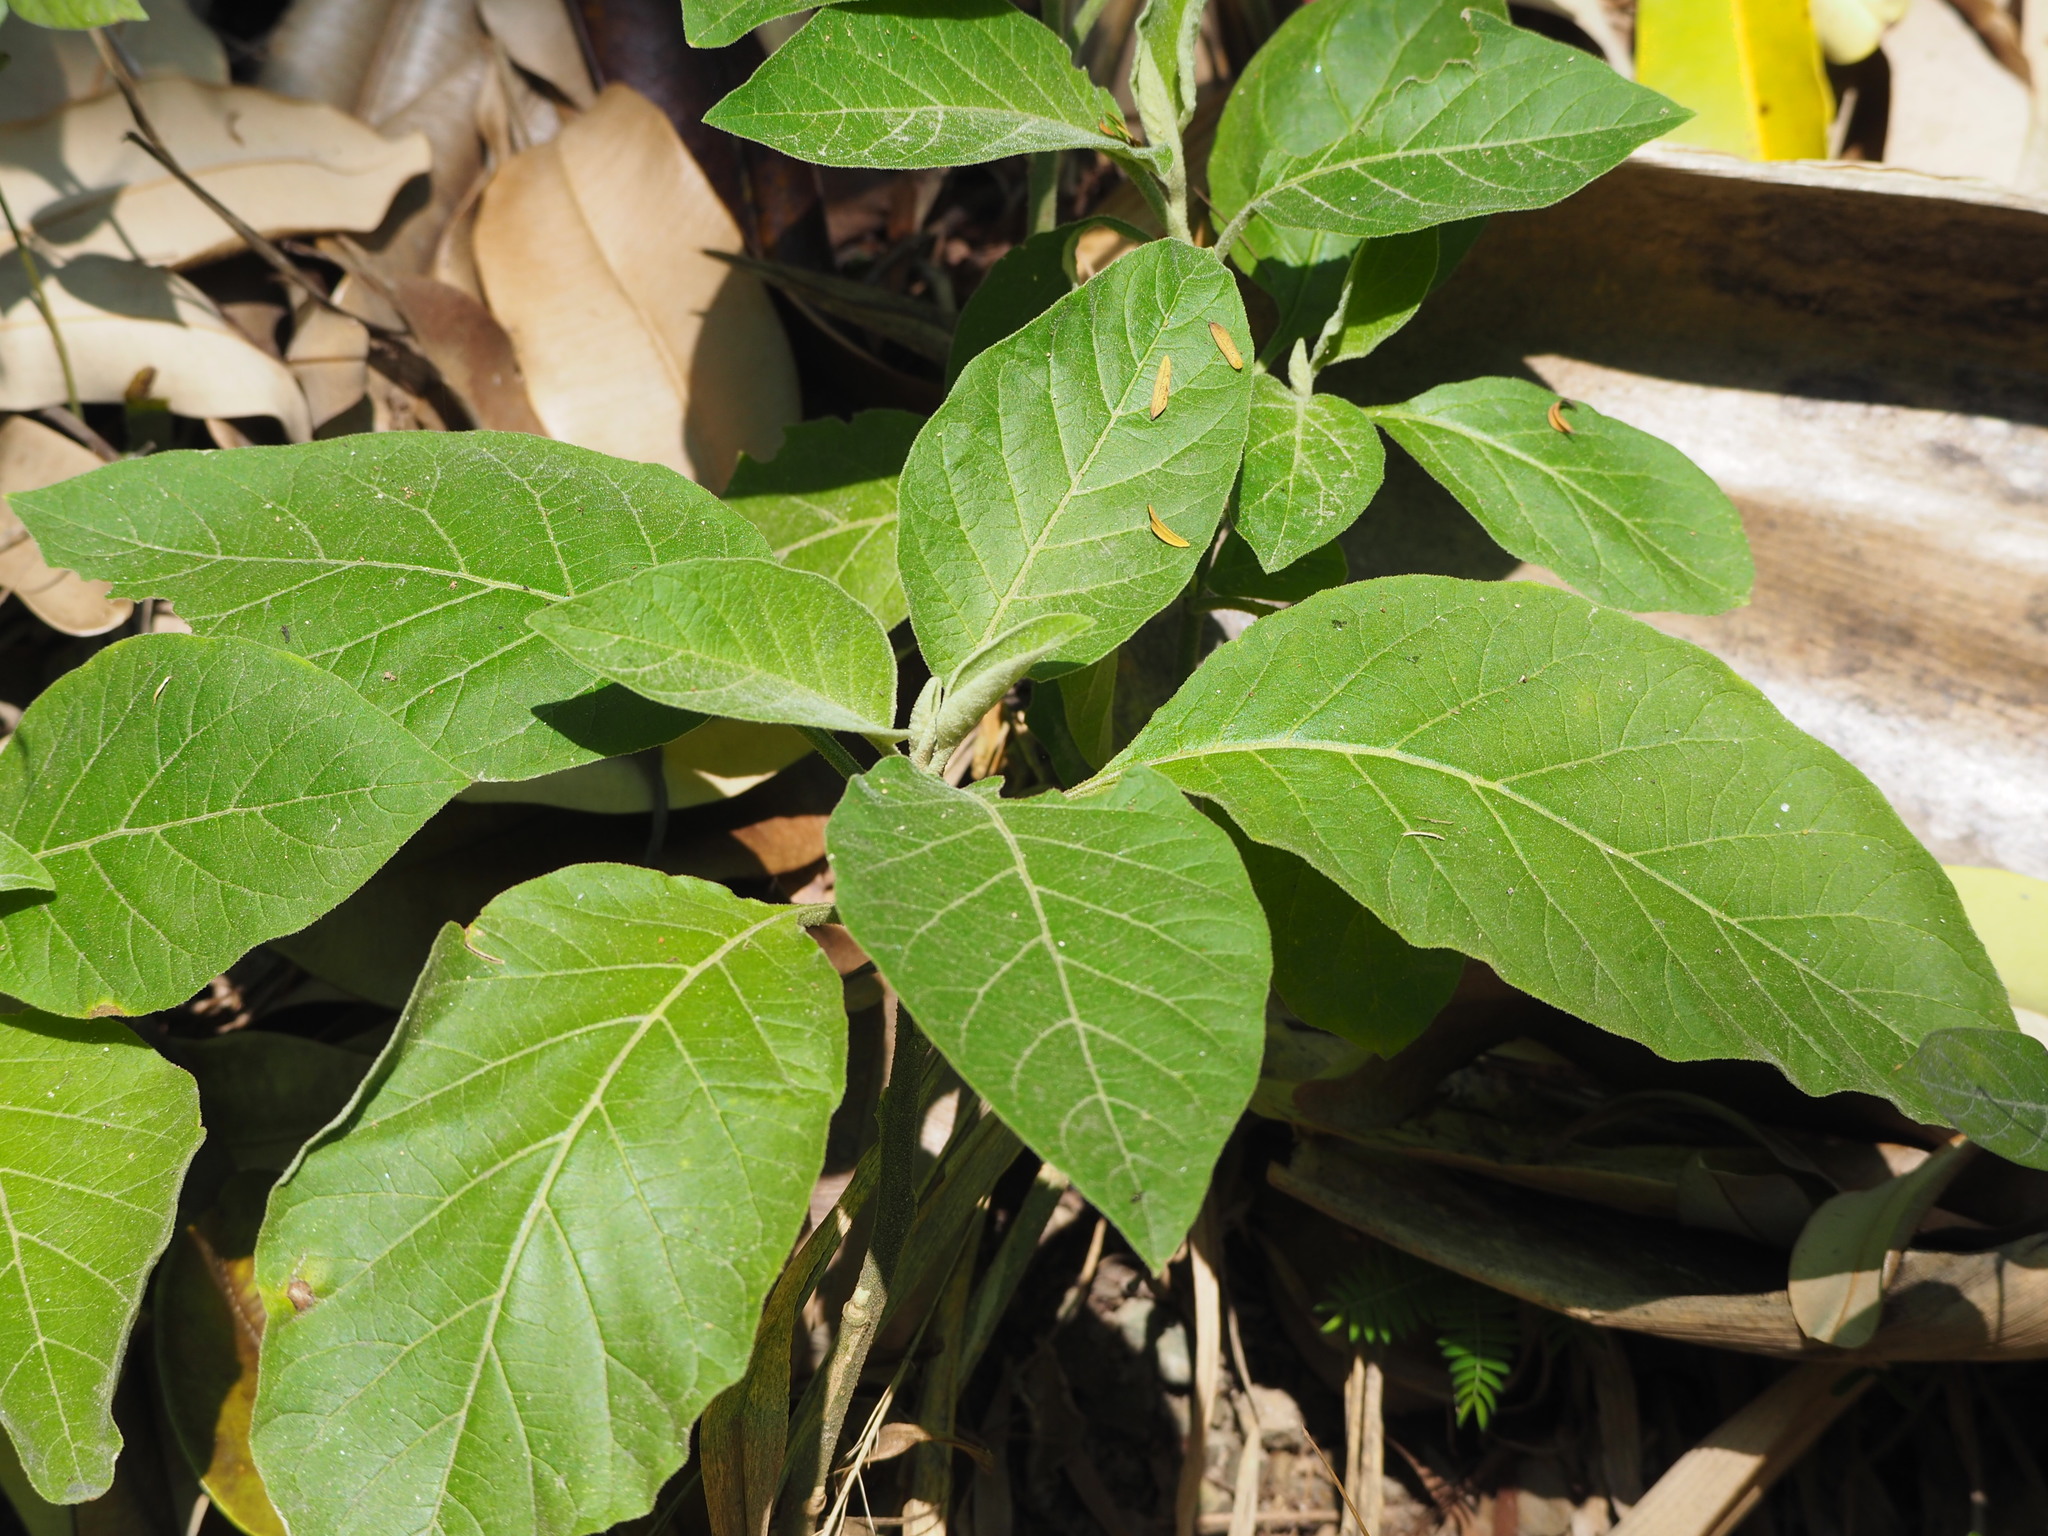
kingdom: Plantae
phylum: Tracheophyta
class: Magnoliopsida
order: Solanales
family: Solanaceae
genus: Solanum
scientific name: Solanum erianthum
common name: Tobacco-tree
